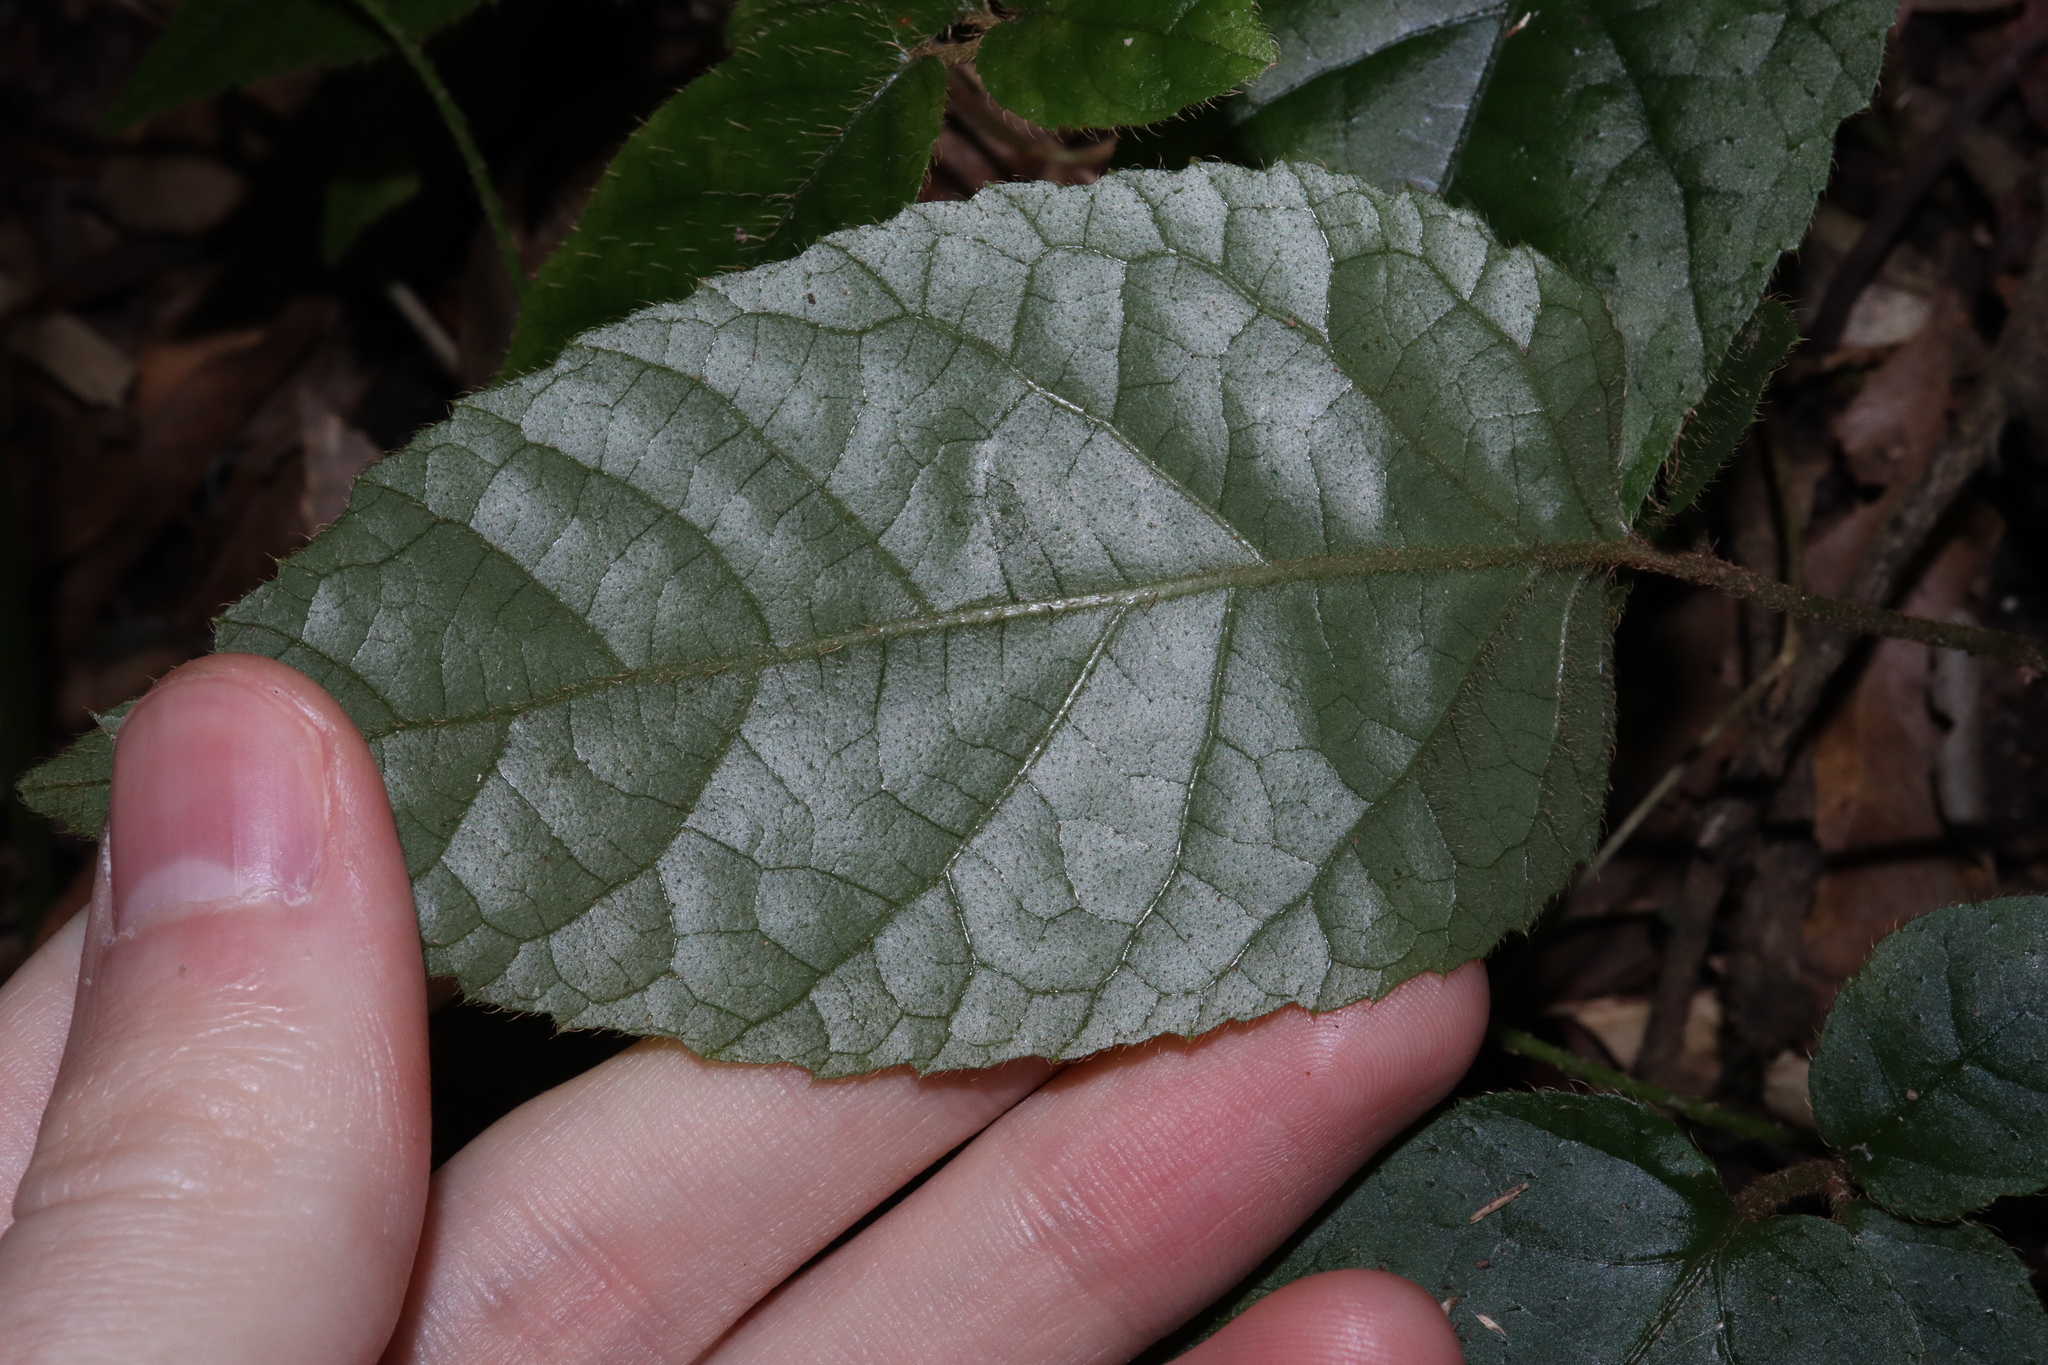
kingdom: Plantae
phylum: Tracheophyta
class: Magnoliopsida
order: Apiales
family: Araliaceae
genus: Cephalaralia
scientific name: Cephalaralia cephalobotrys
